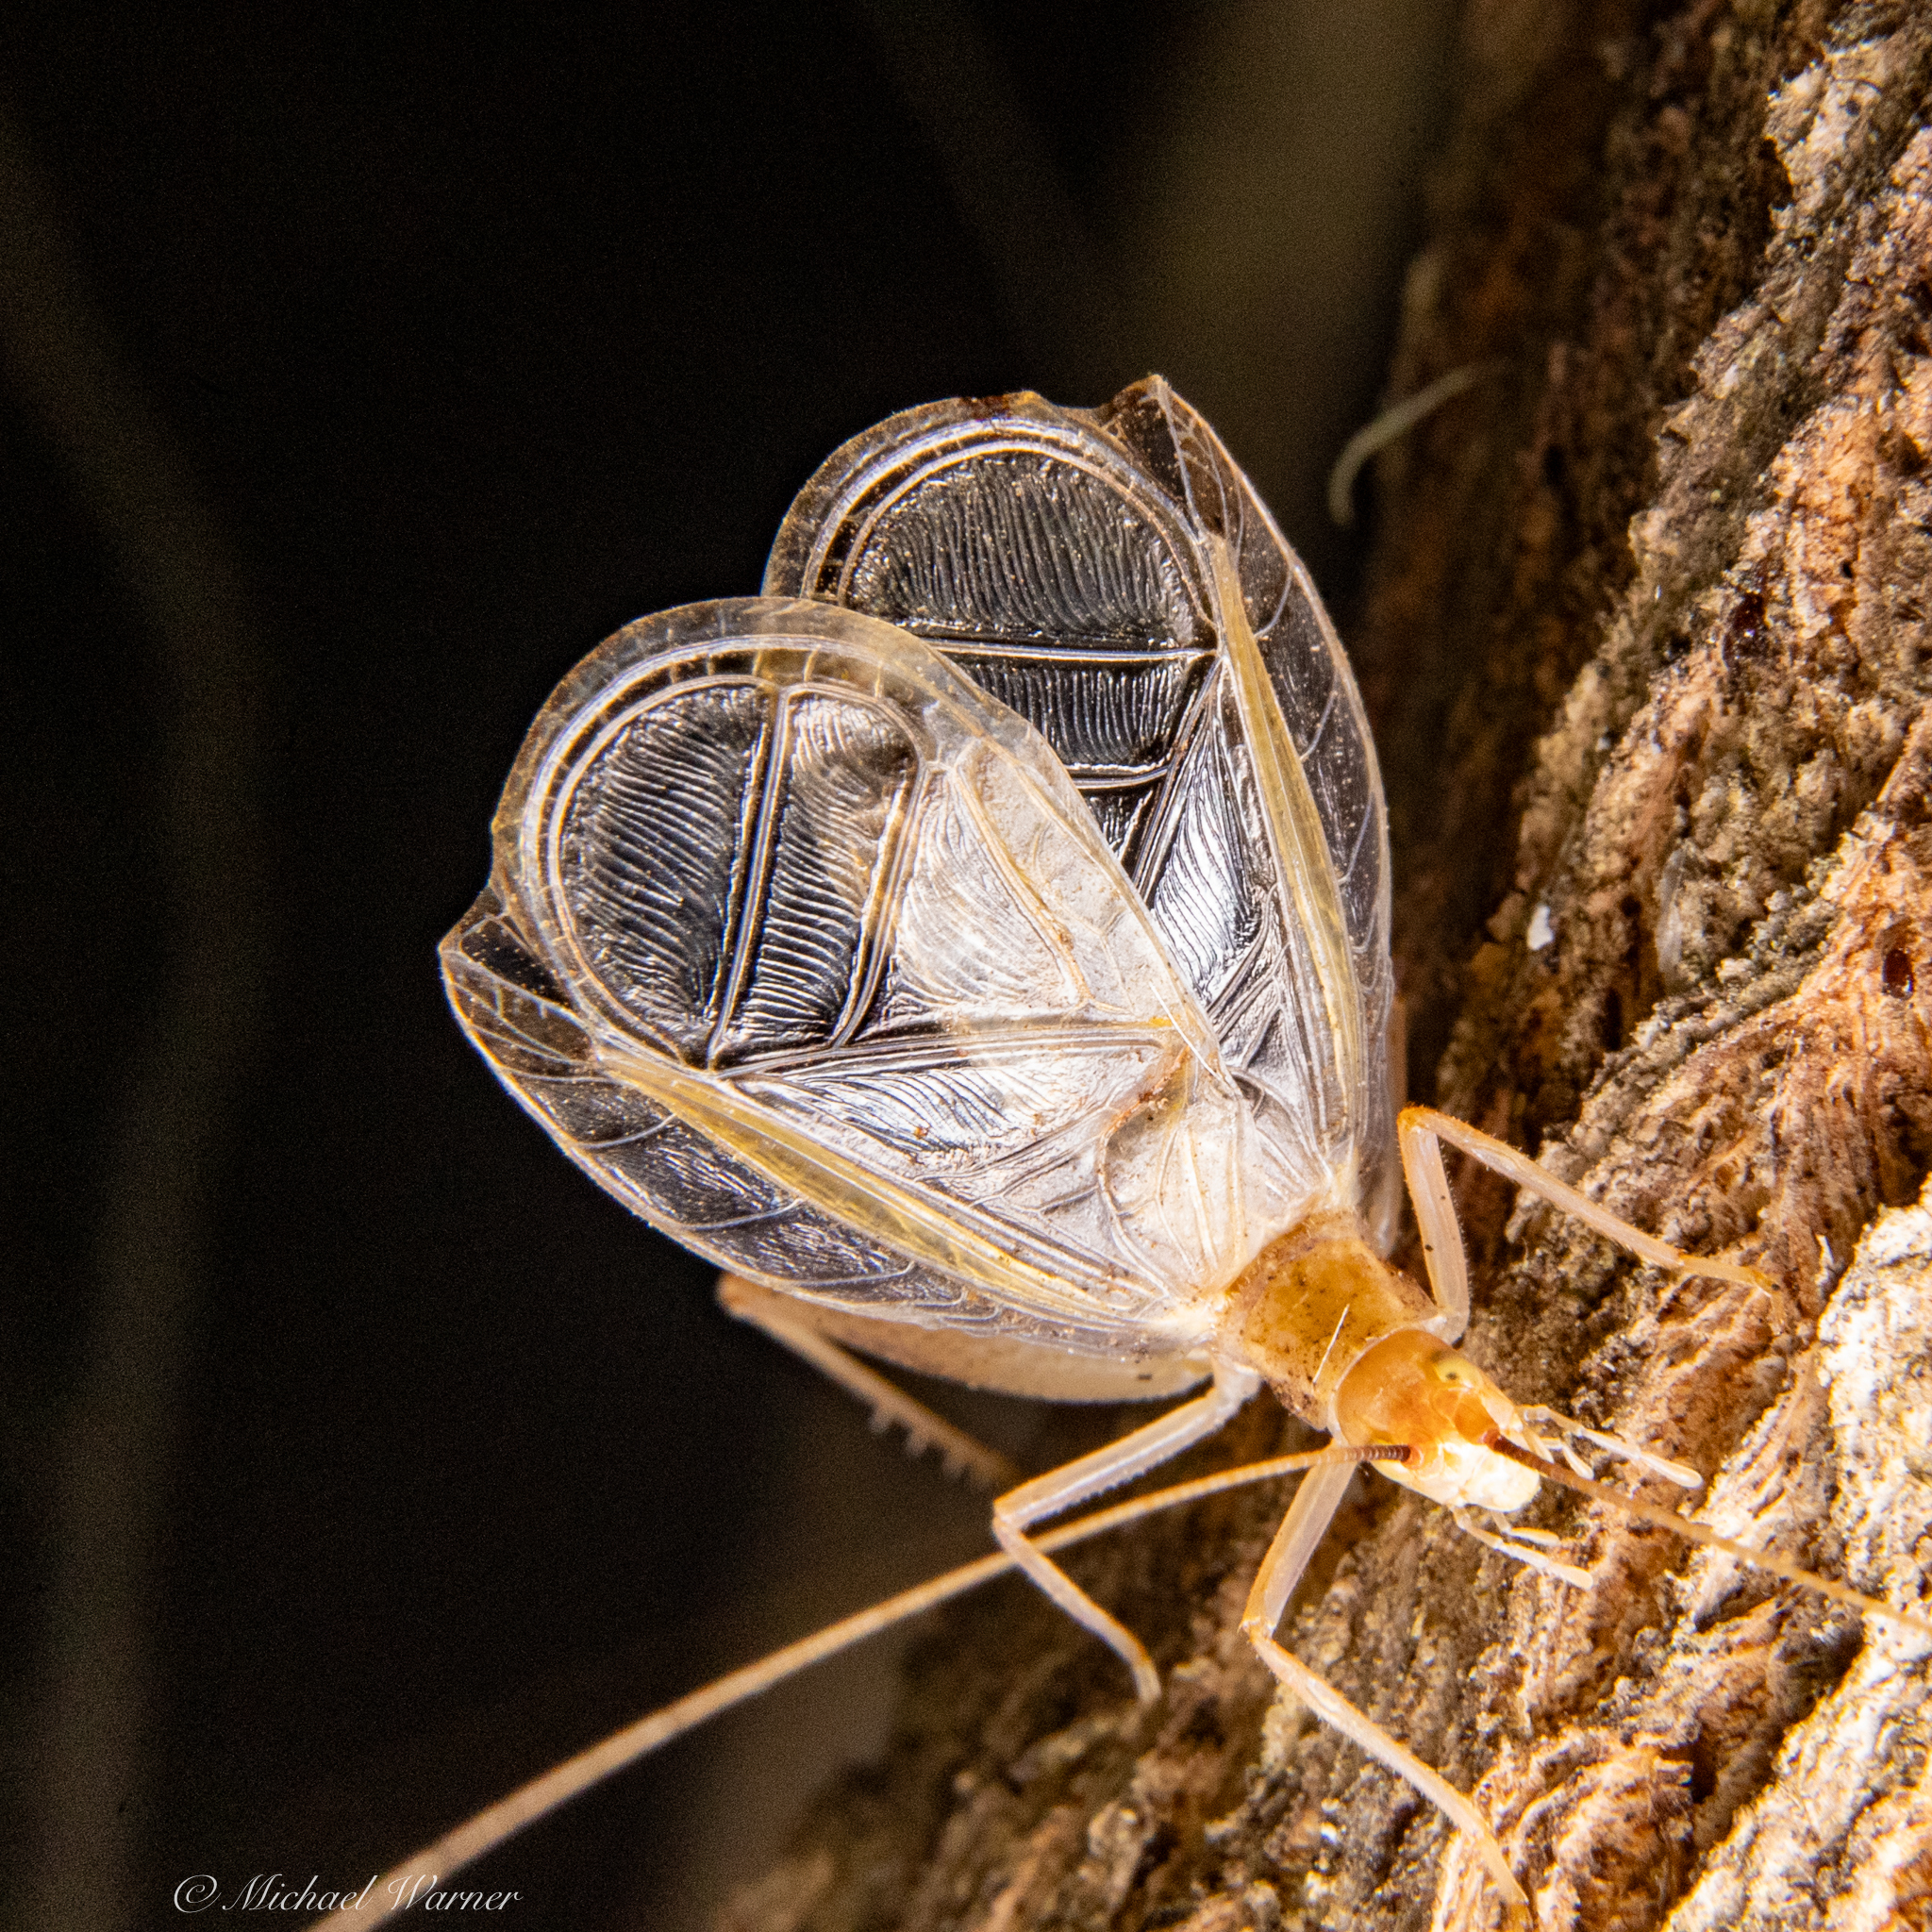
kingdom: Animalia
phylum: Arthropoda
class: Insecta
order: Orthoptera
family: Gryllidae
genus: Oecanthus
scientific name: Oecanthus californicus
